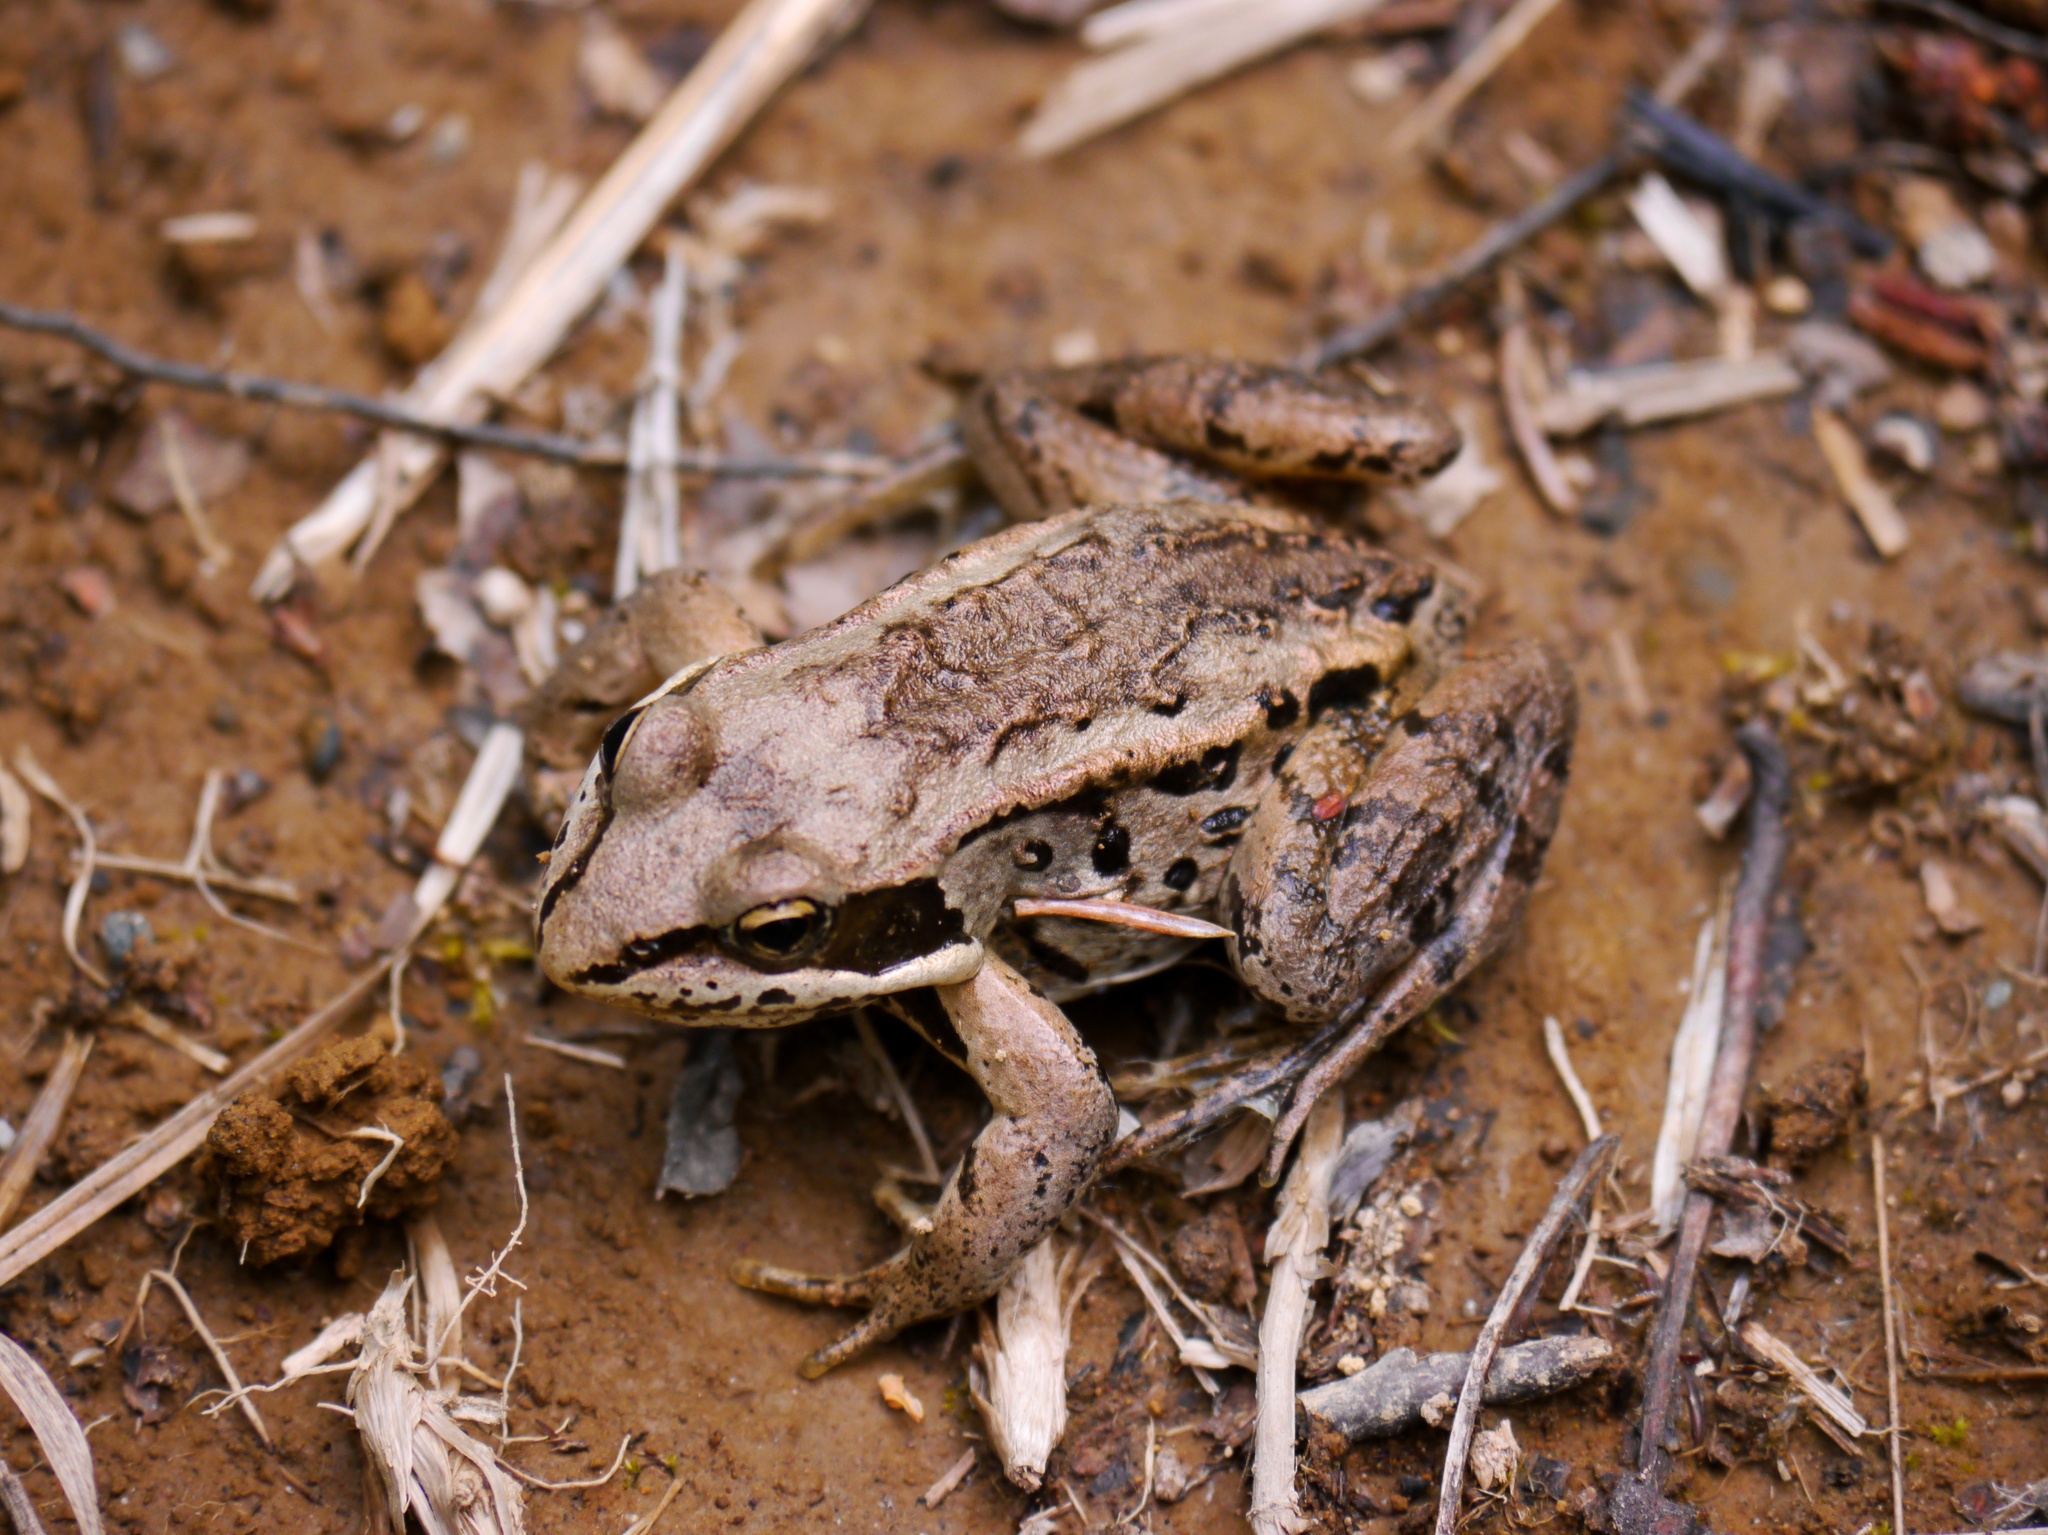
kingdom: Animalia
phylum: Chordata
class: Amphibia
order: Anura
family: Ranidae
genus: Lithobates
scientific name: Lithobates sylvaticus
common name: Wood frog
